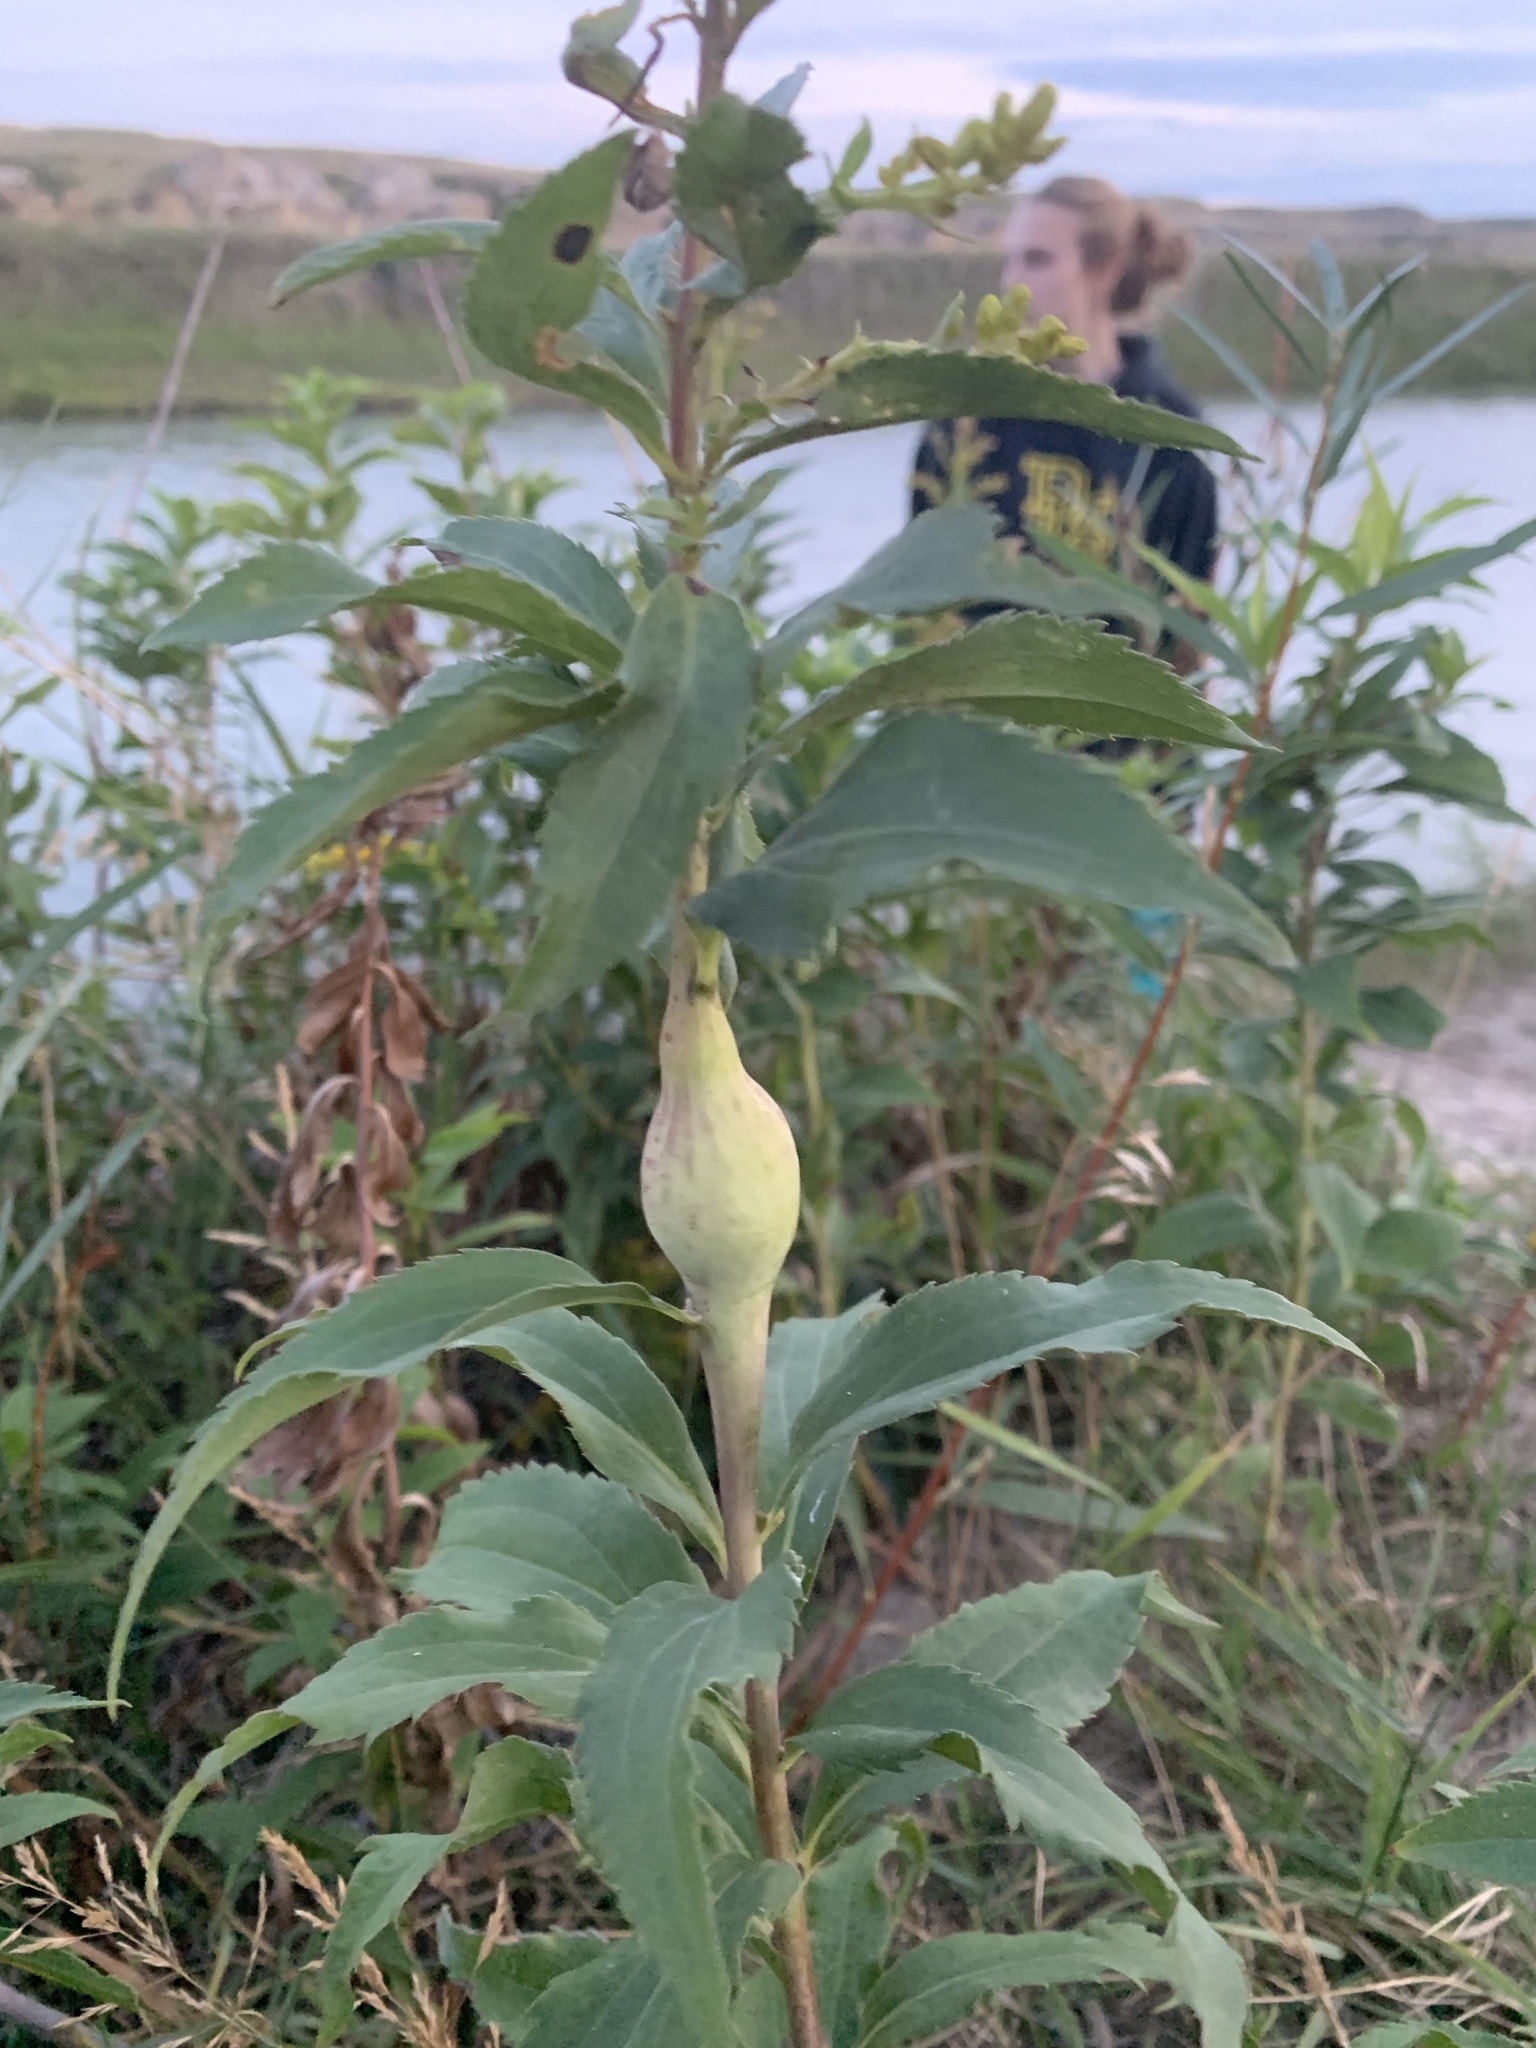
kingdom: Animalia
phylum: Arthropoda
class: Insecta
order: Diptera
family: Tephritidae
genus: Eurosta
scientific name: Eurosta solidaginis
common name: Goldenrod gall fly
